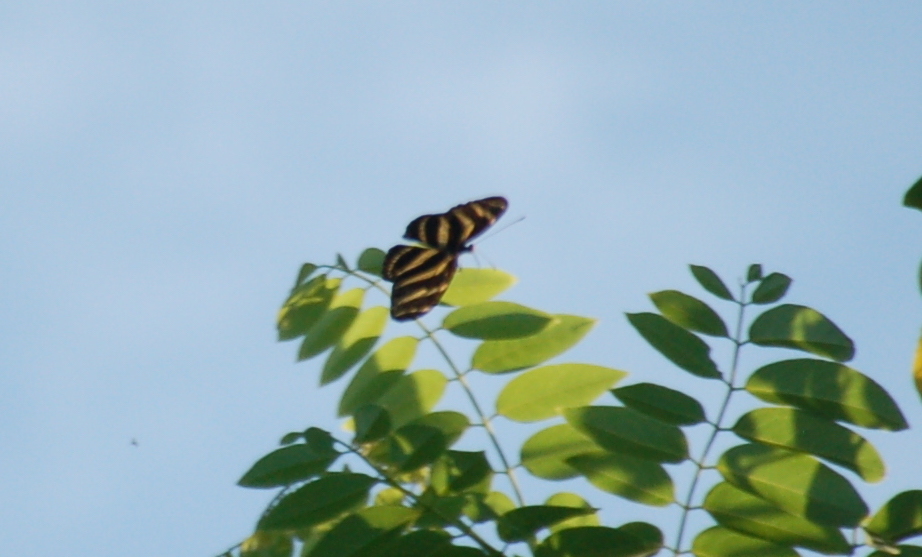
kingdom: Animalia
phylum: Arthropoda
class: Insecta
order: Lepidoptera
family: Nymphalidae
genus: Heliconius
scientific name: Heliconius charithonia
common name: Zebra long wing
